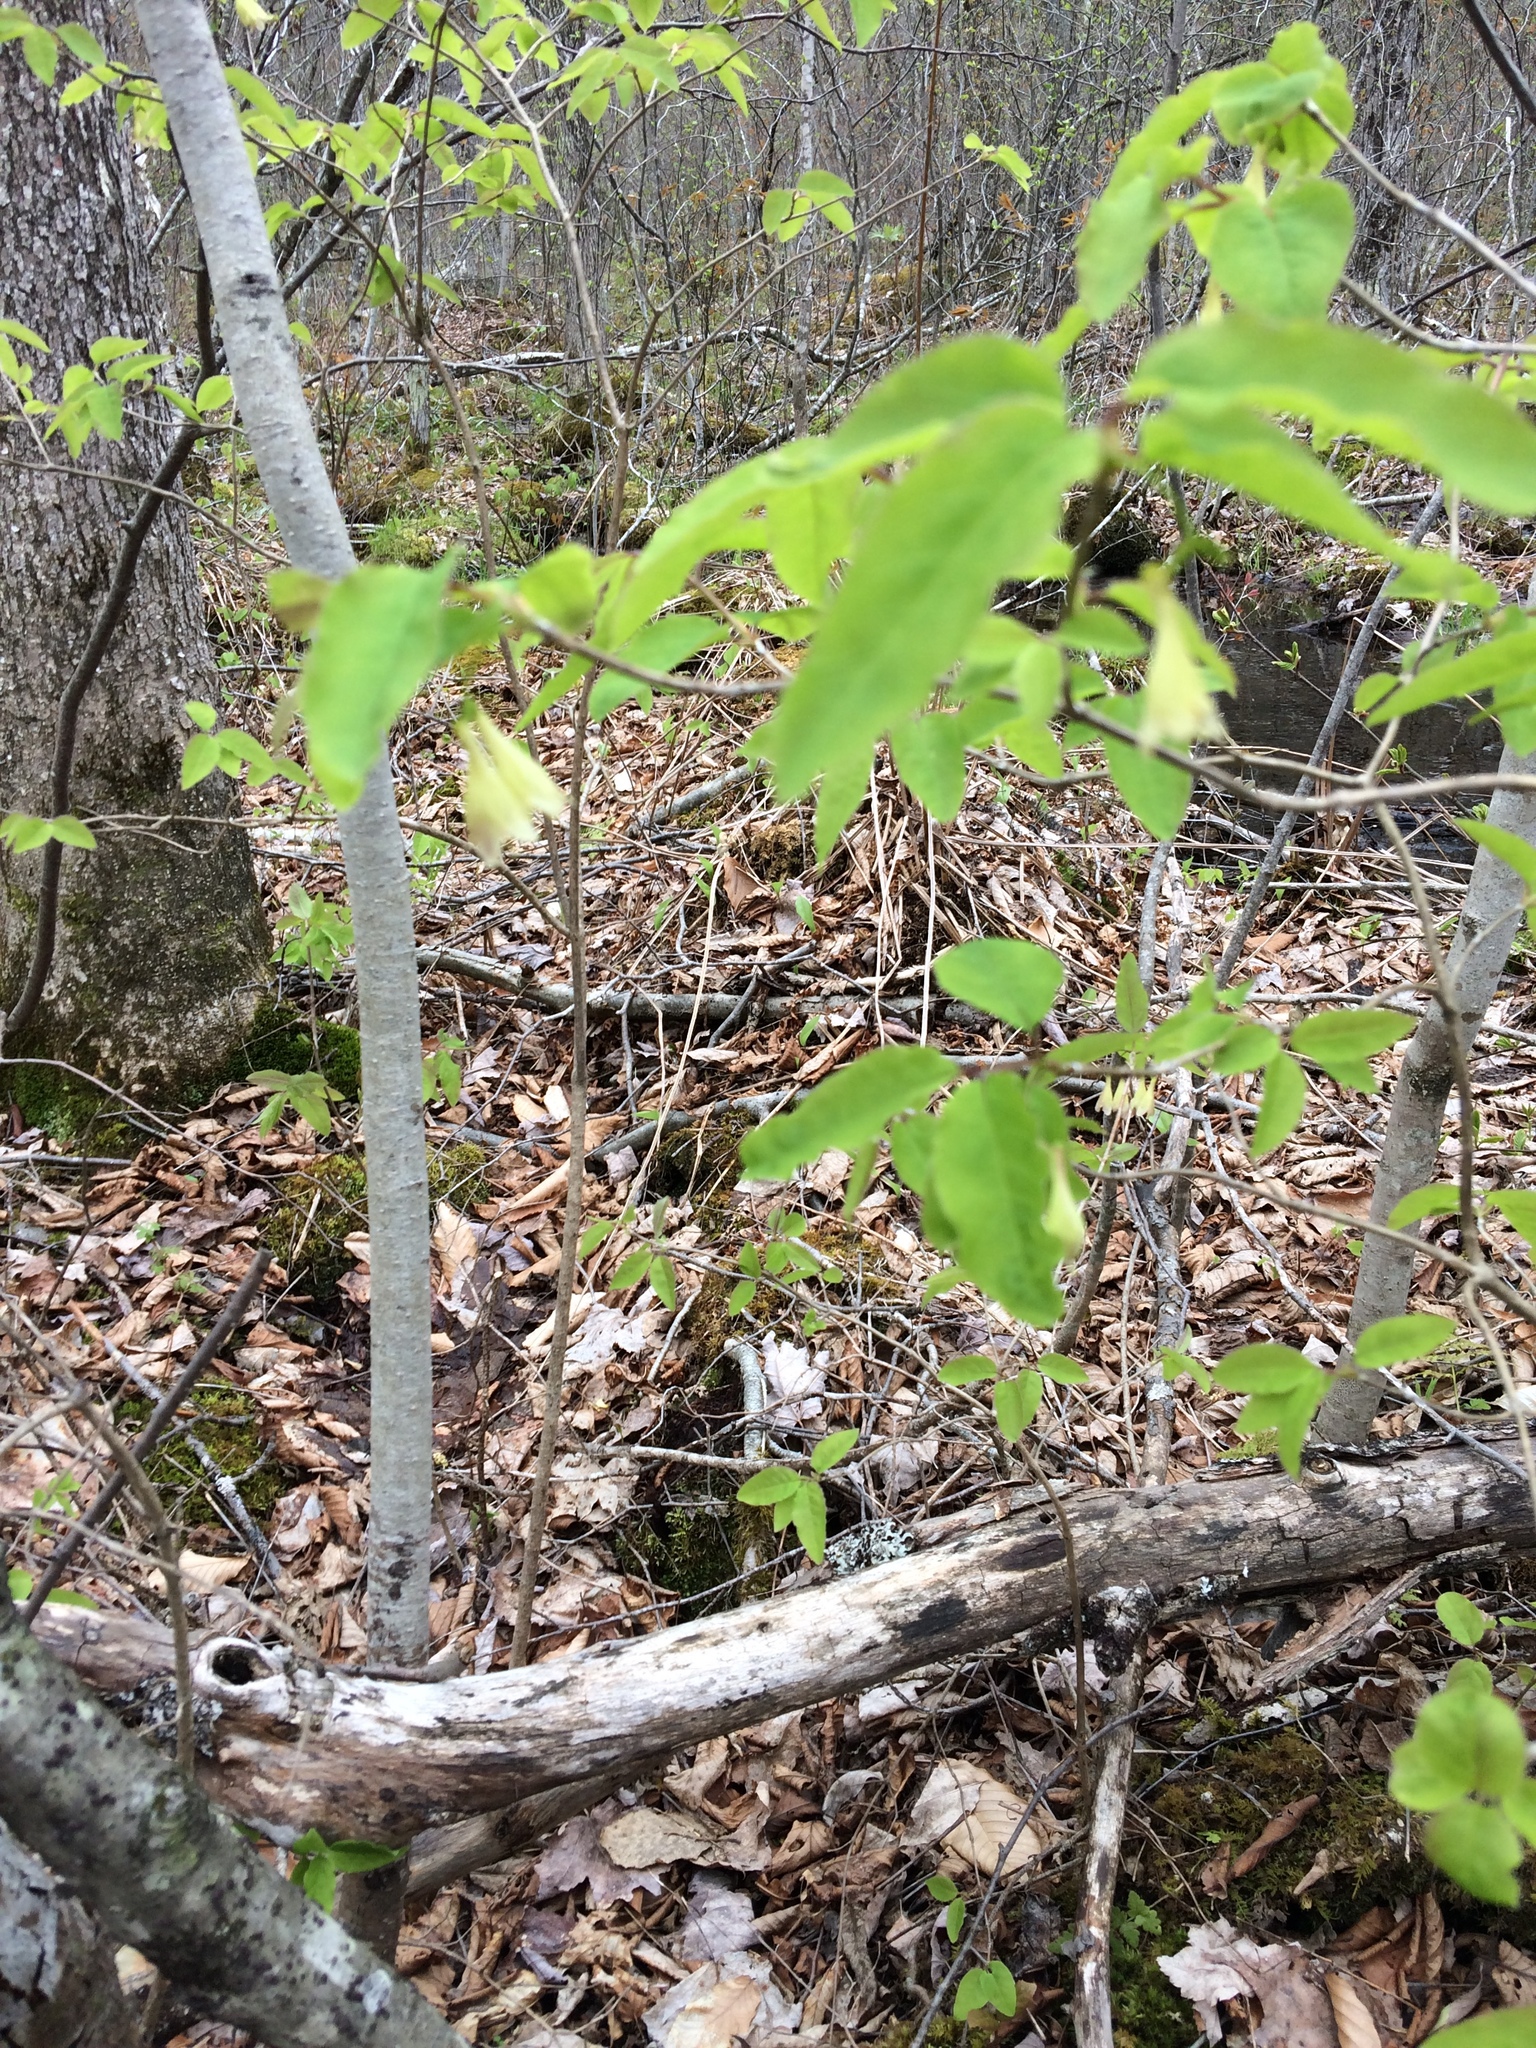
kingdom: Plantae
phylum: Tracheophyta
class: Magnoliopsida
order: Dipsacales
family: Caprifoliaceae
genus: Lonicera
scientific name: Lonicera canadensis
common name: American fly-honeysuckle
